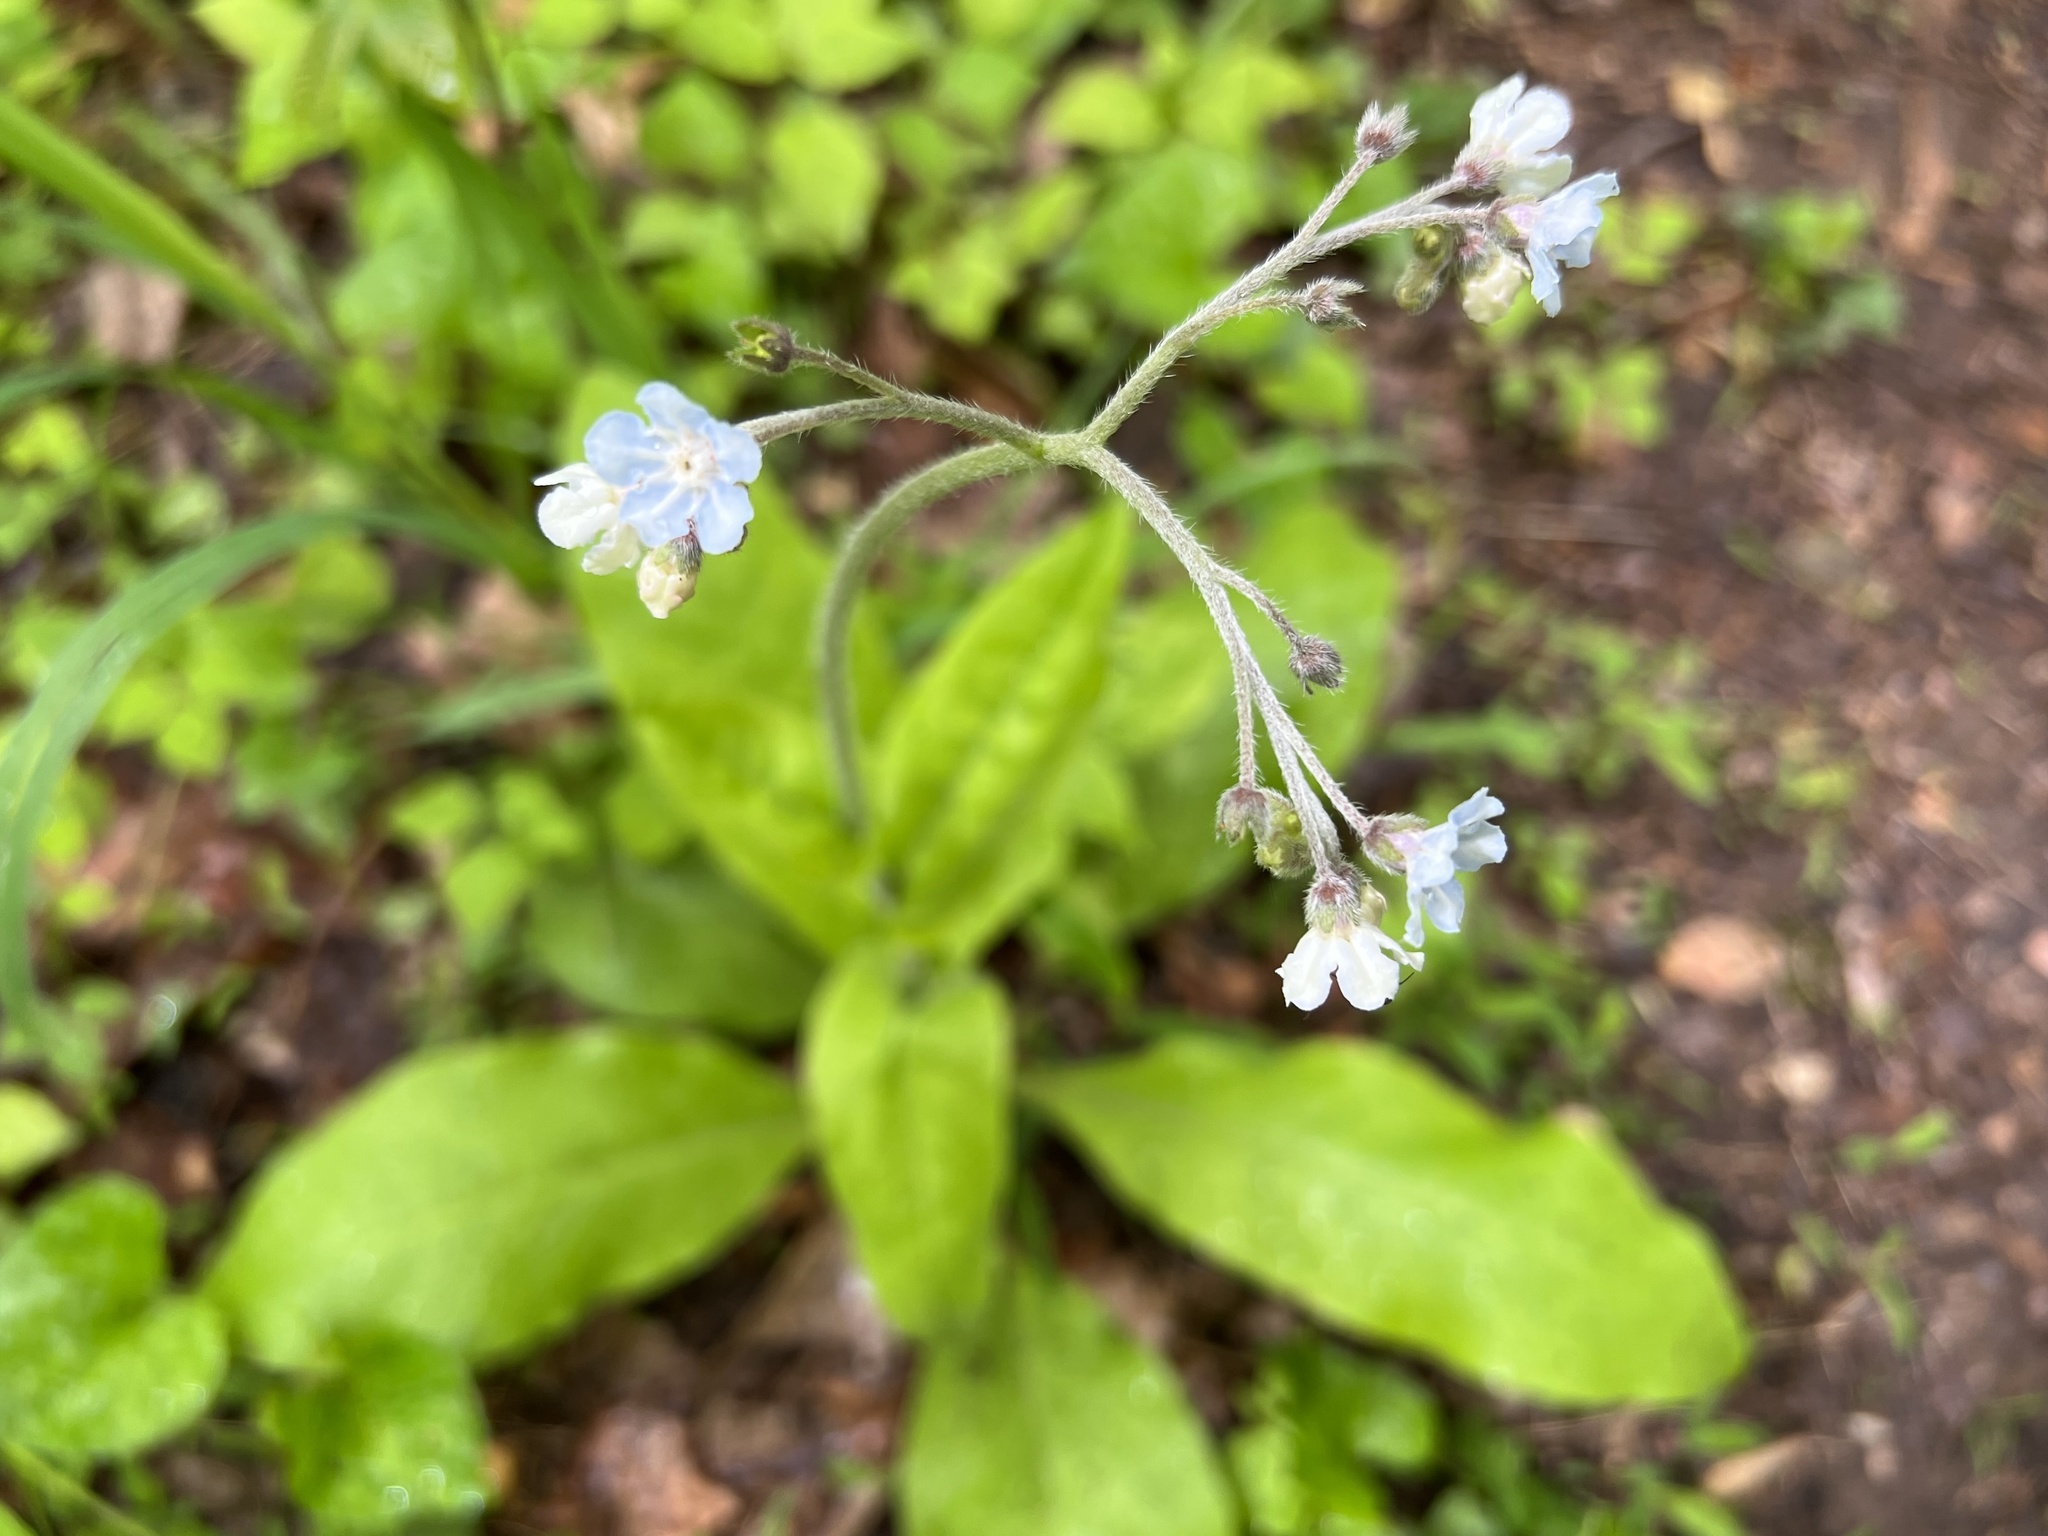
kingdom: Plantae
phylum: Tracheophyta
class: Magnoliopsida
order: Boraginales
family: Boraginaceae
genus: Andersonglossum
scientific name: Andersonglossum virginianum
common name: Wild comfrey
